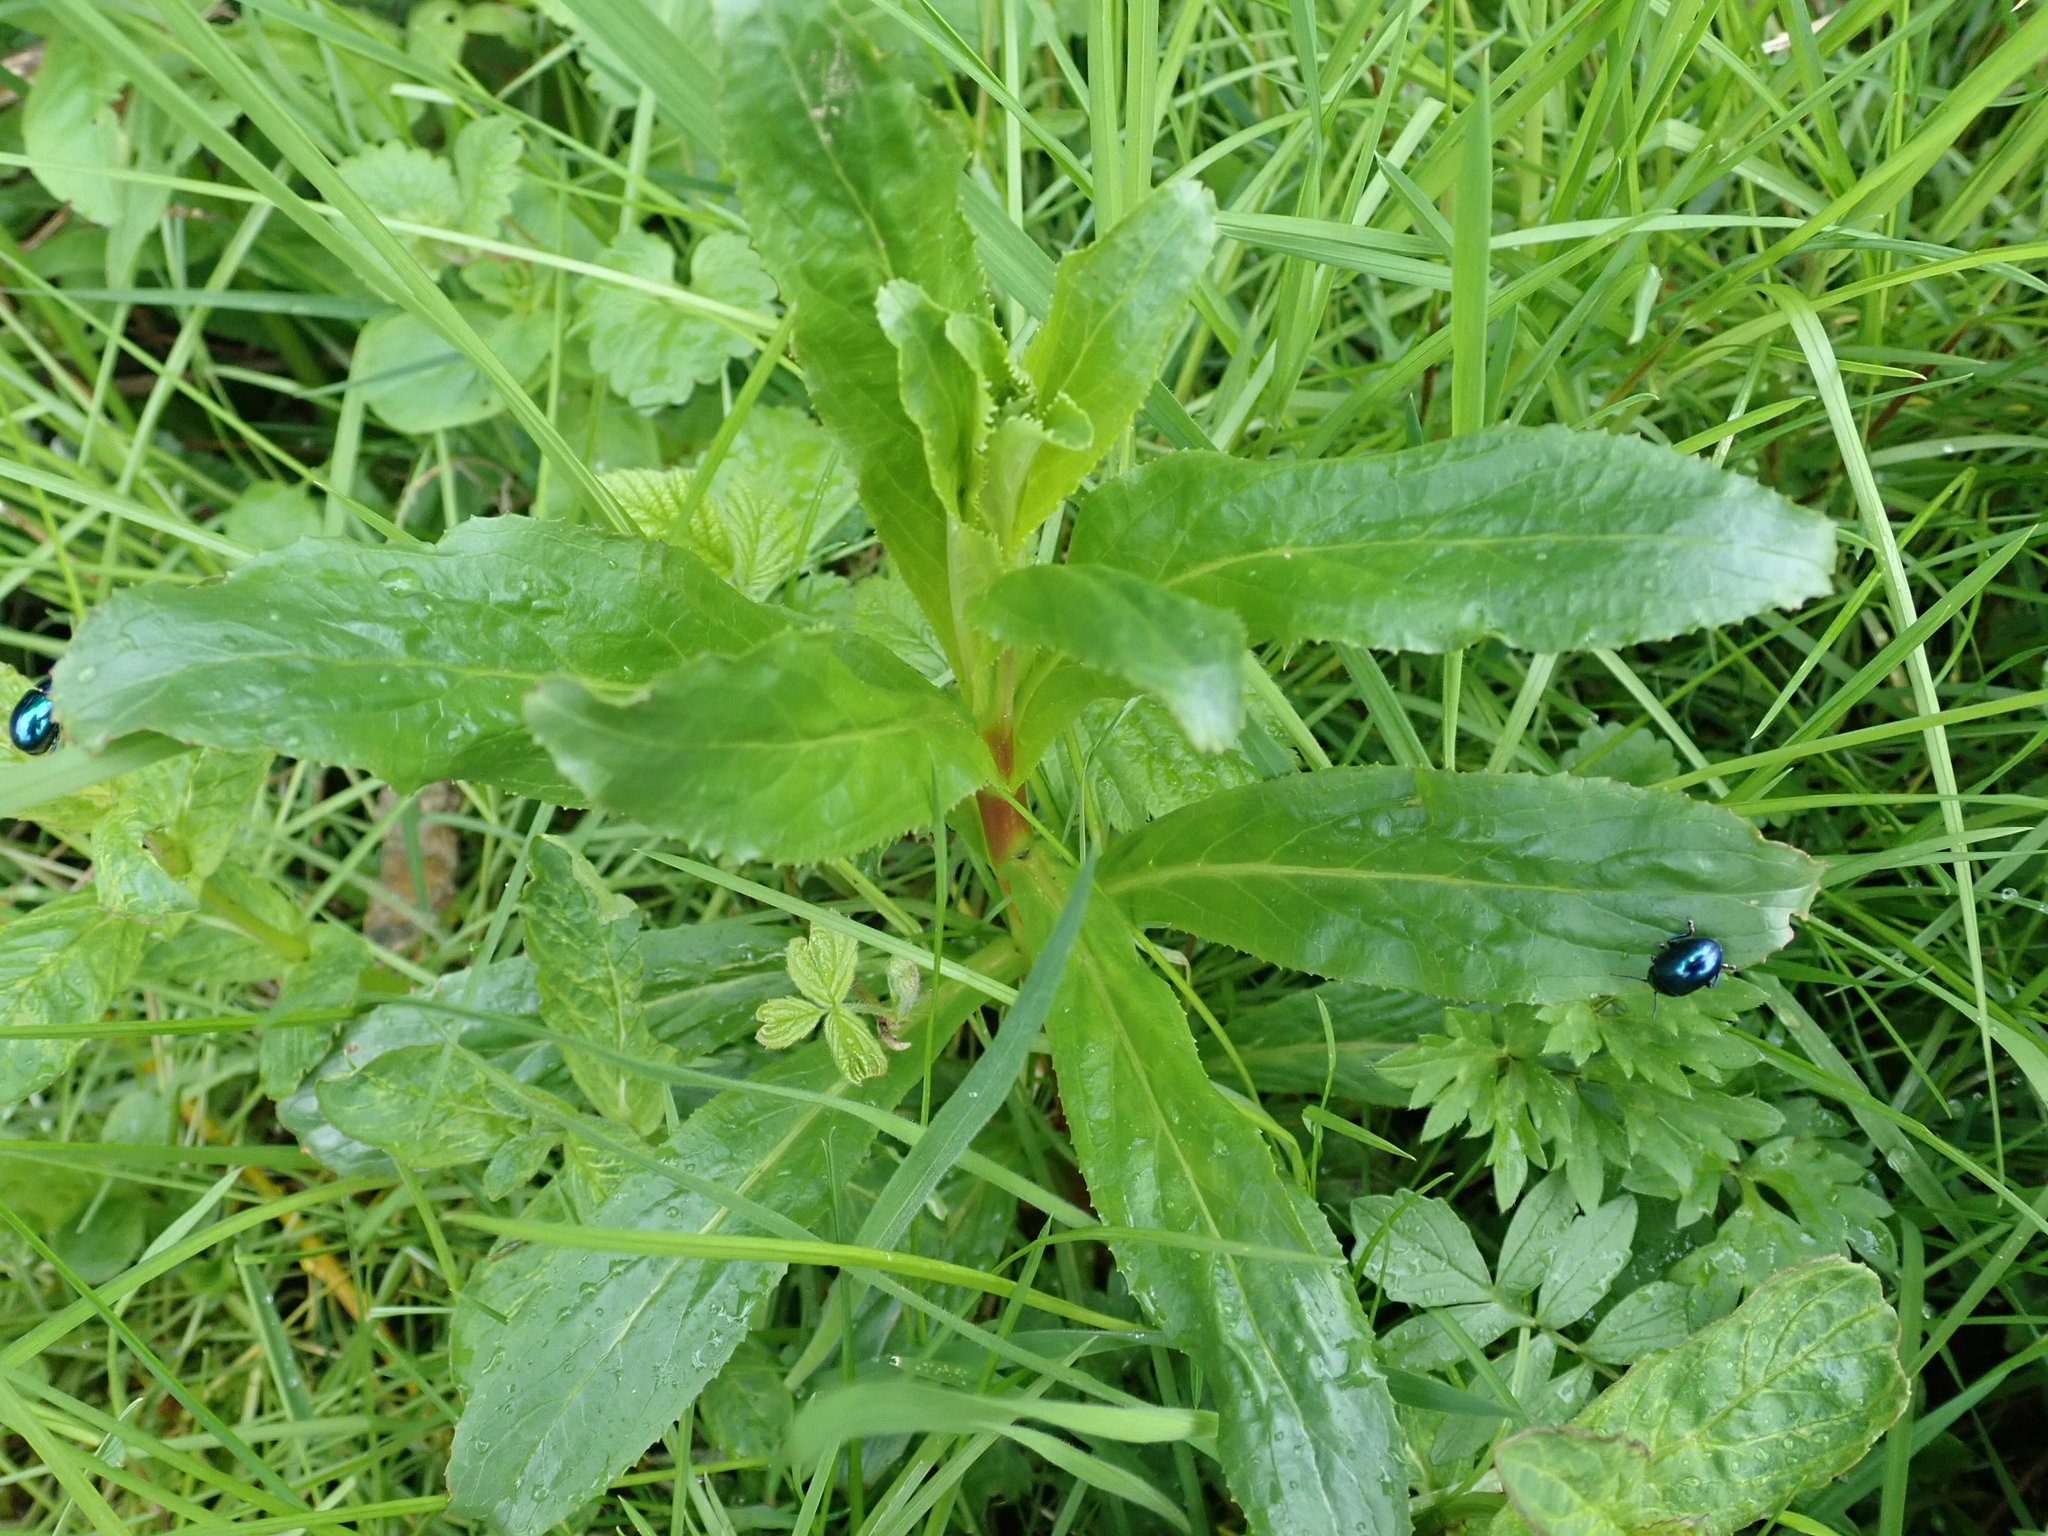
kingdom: Animalia
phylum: Arthropoda
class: Insecta
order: Coleoptera
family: Chrysomelidae
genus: Chrysolina
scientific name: Chrysolina coerulans
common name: Blue mint beetle
